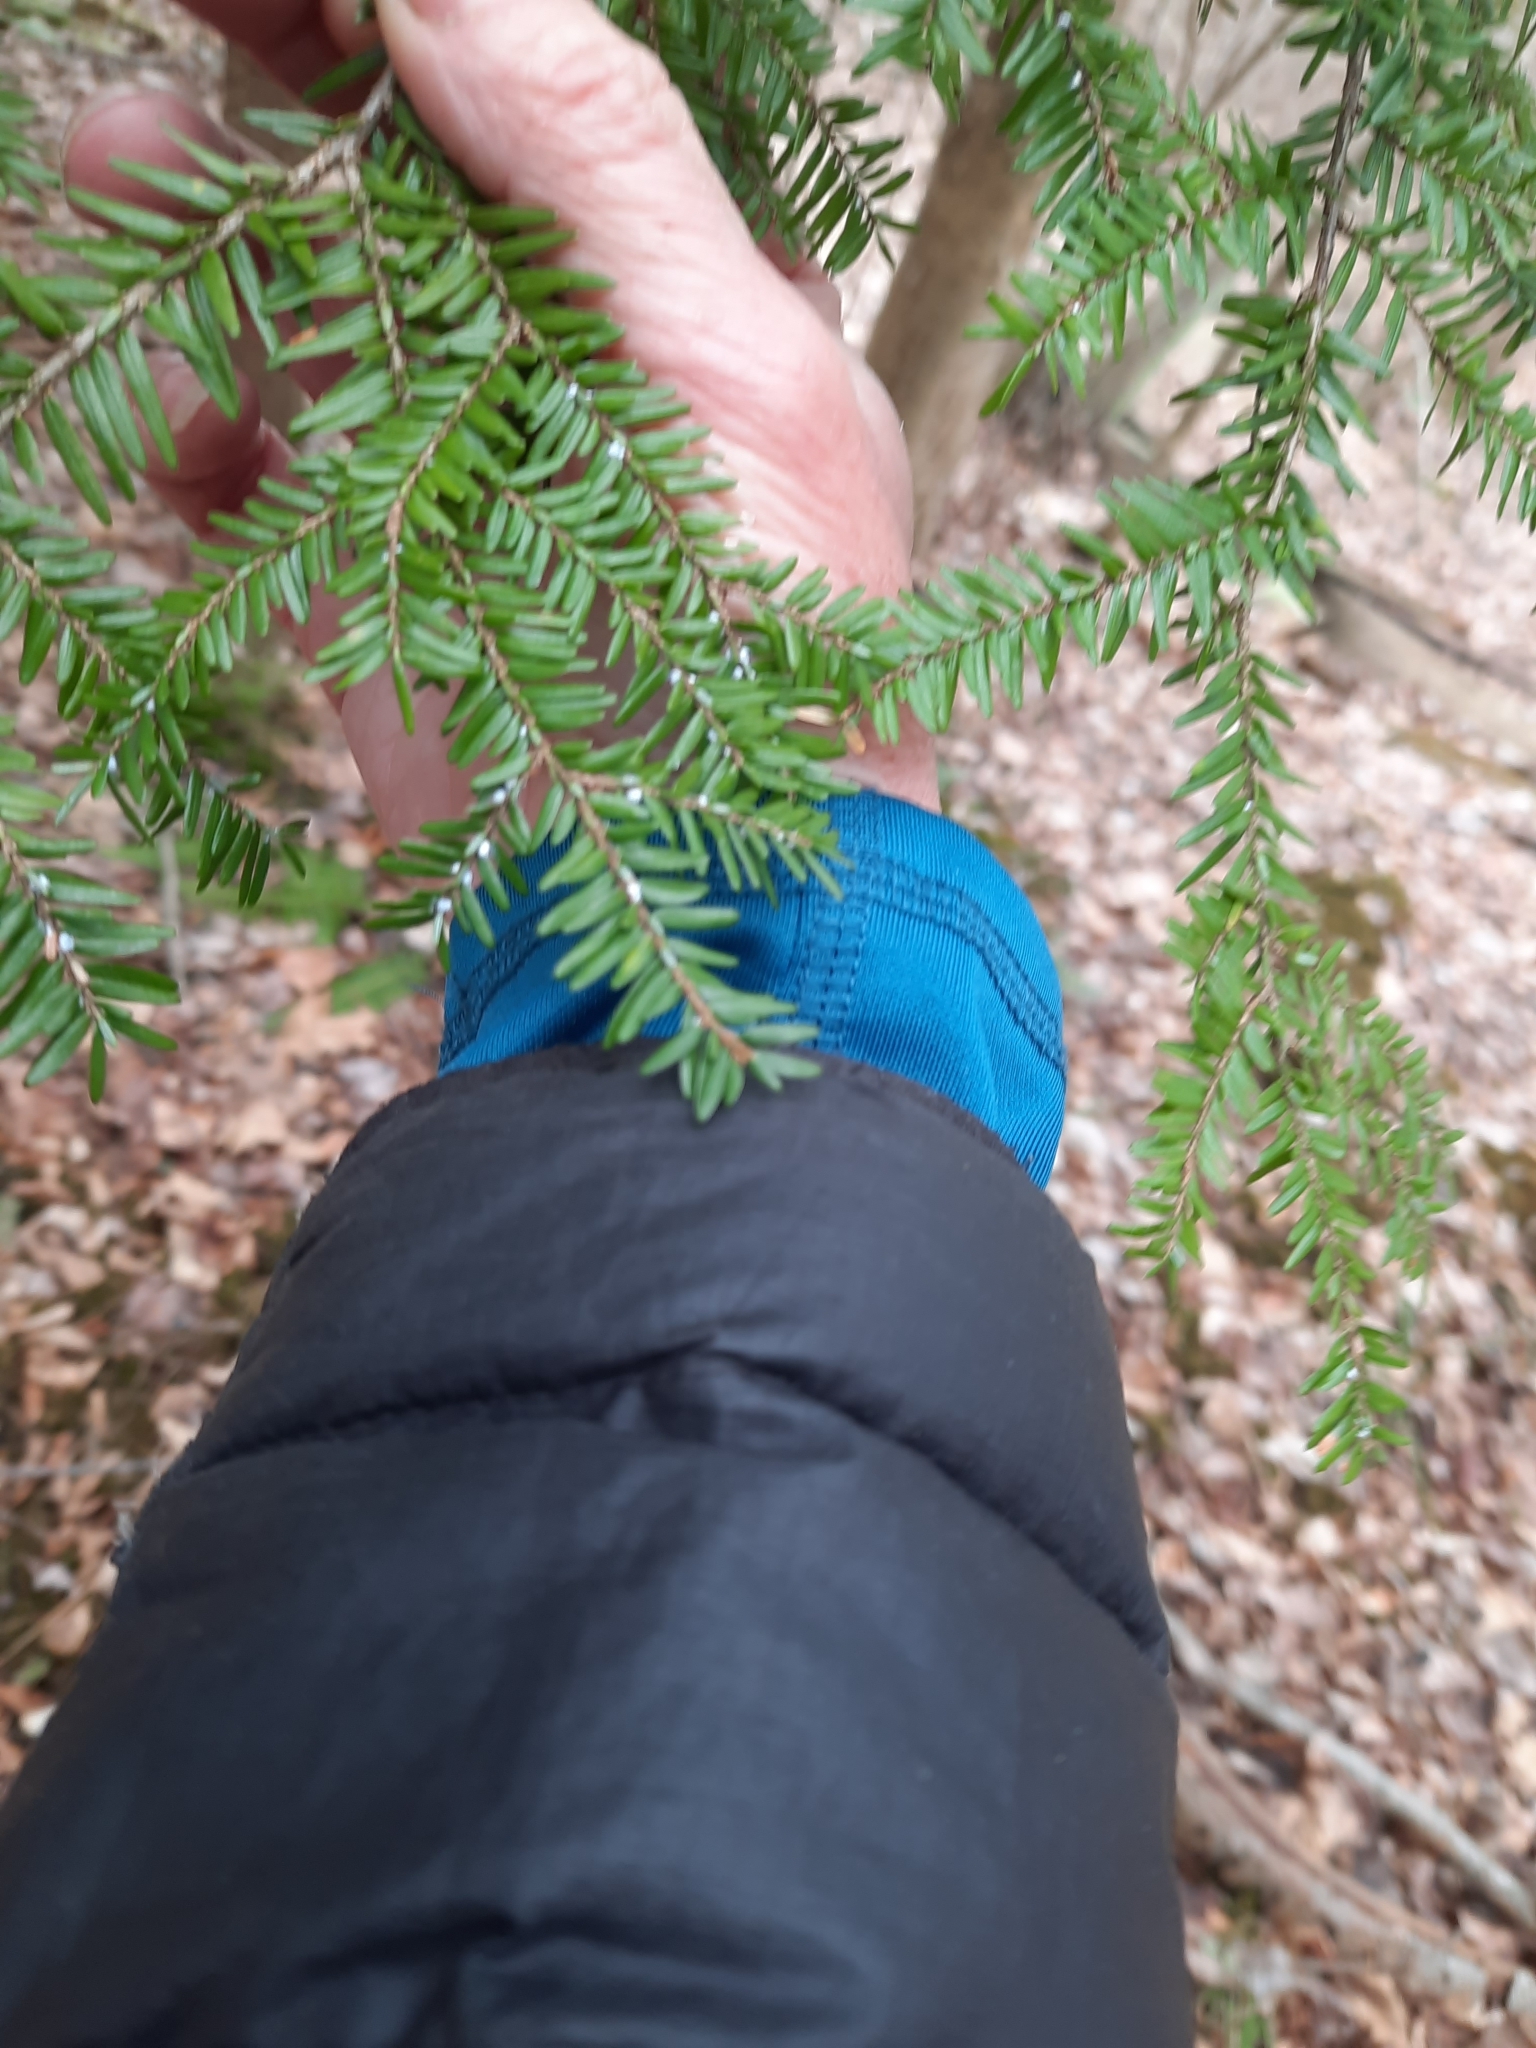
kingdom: Animalia
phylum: Arthropoda
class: Insecta
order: Hemiptera
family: Adelgidae
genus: Adelges
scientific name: Adelges tsugae
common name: Hemlock woolly adelgid
